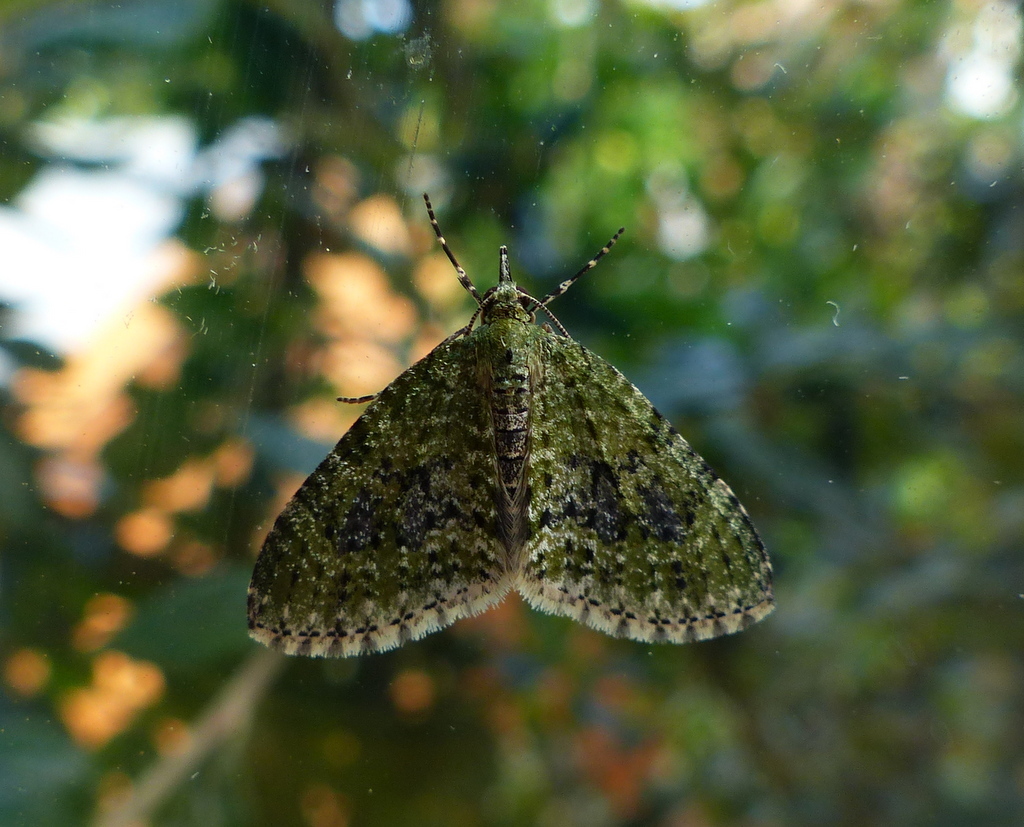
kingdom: Animalia
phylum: Arthropoda
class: Insecta
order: Lepidoptera
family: Geometridae
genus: Acasis
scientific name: Acasis viretata
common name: Yellow-barred brindle
